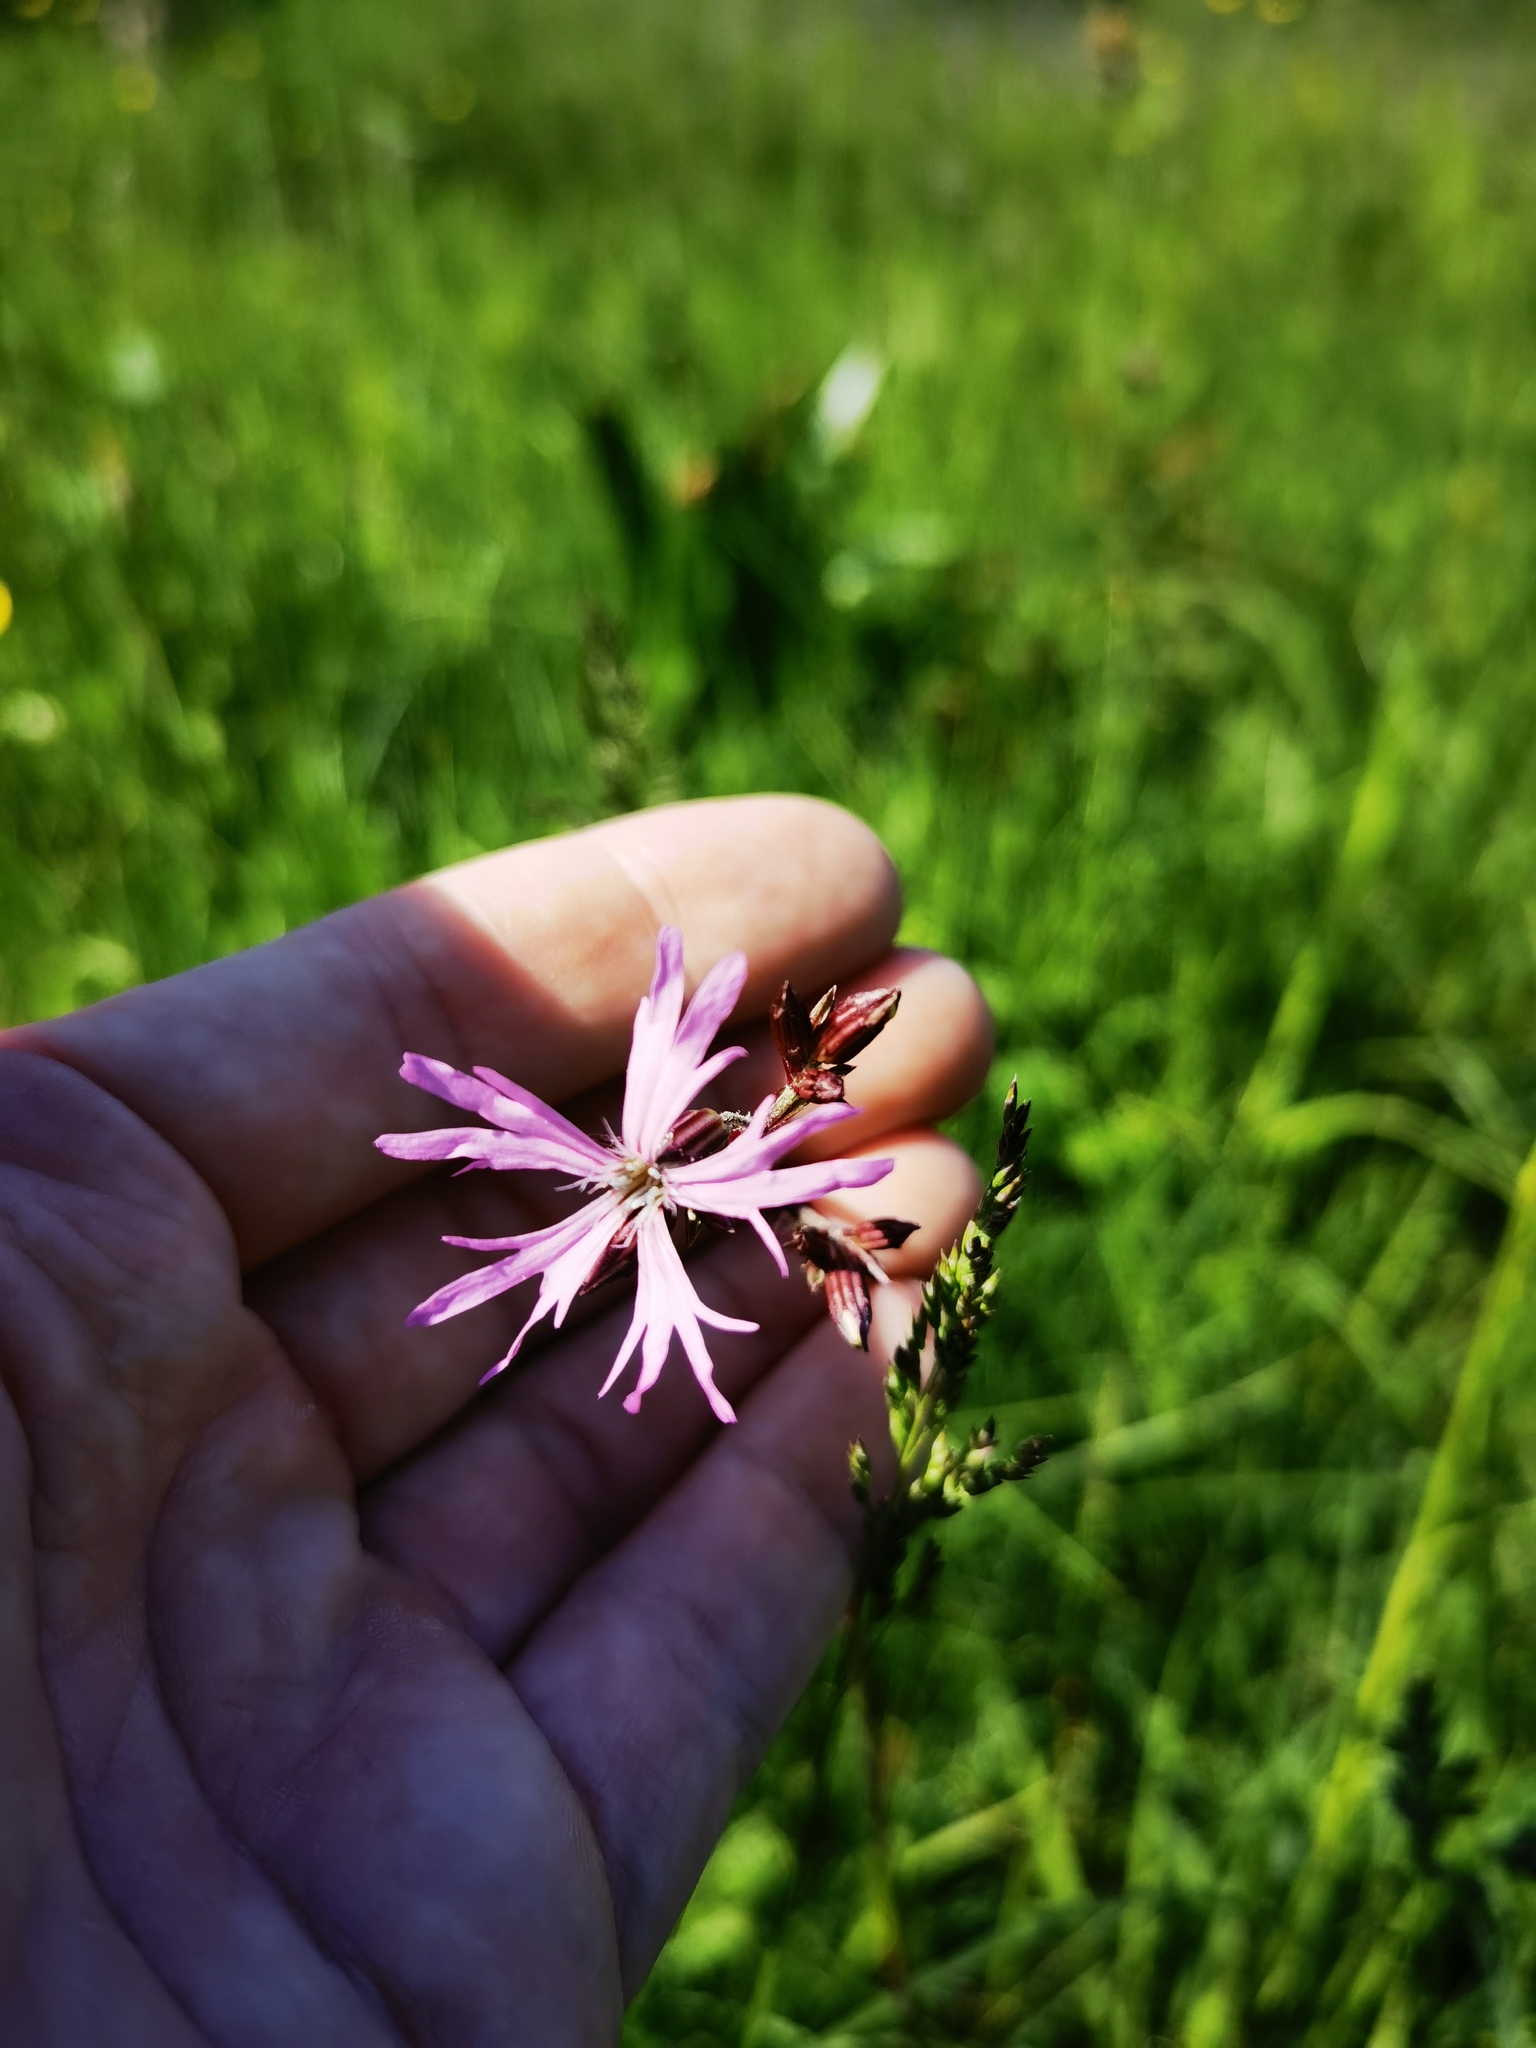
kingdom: Plantae
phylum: Tracheophyta
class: Magnoliopsida
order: Caryophyllales
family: Caryophyllaceae
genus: Silene
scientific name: Silene flos-cuculi
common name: Ragged-robin
